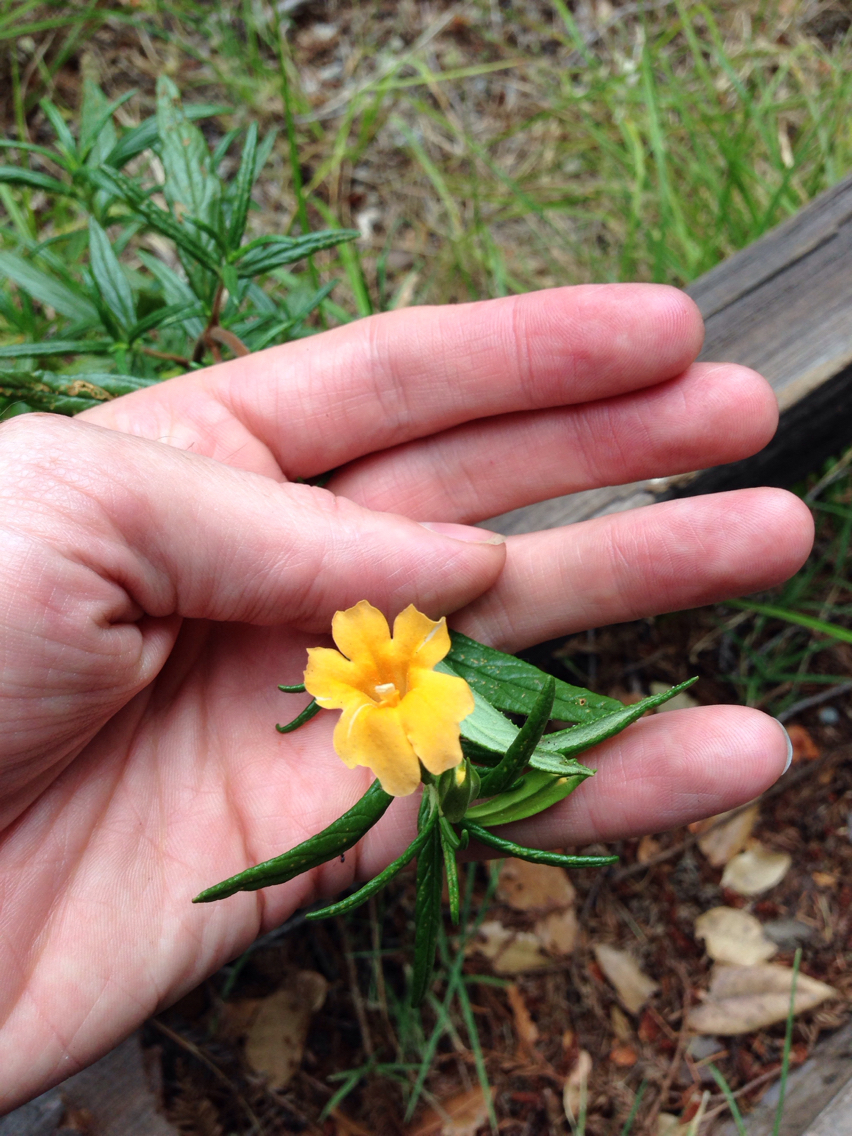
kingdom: Plantae
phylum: Tracheophyta
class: Magnoliopsida
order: Lamiales
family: Phrymaceae
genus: Diplacus
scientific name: Diplacus aurantiacus
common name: Bush monkey-flower
